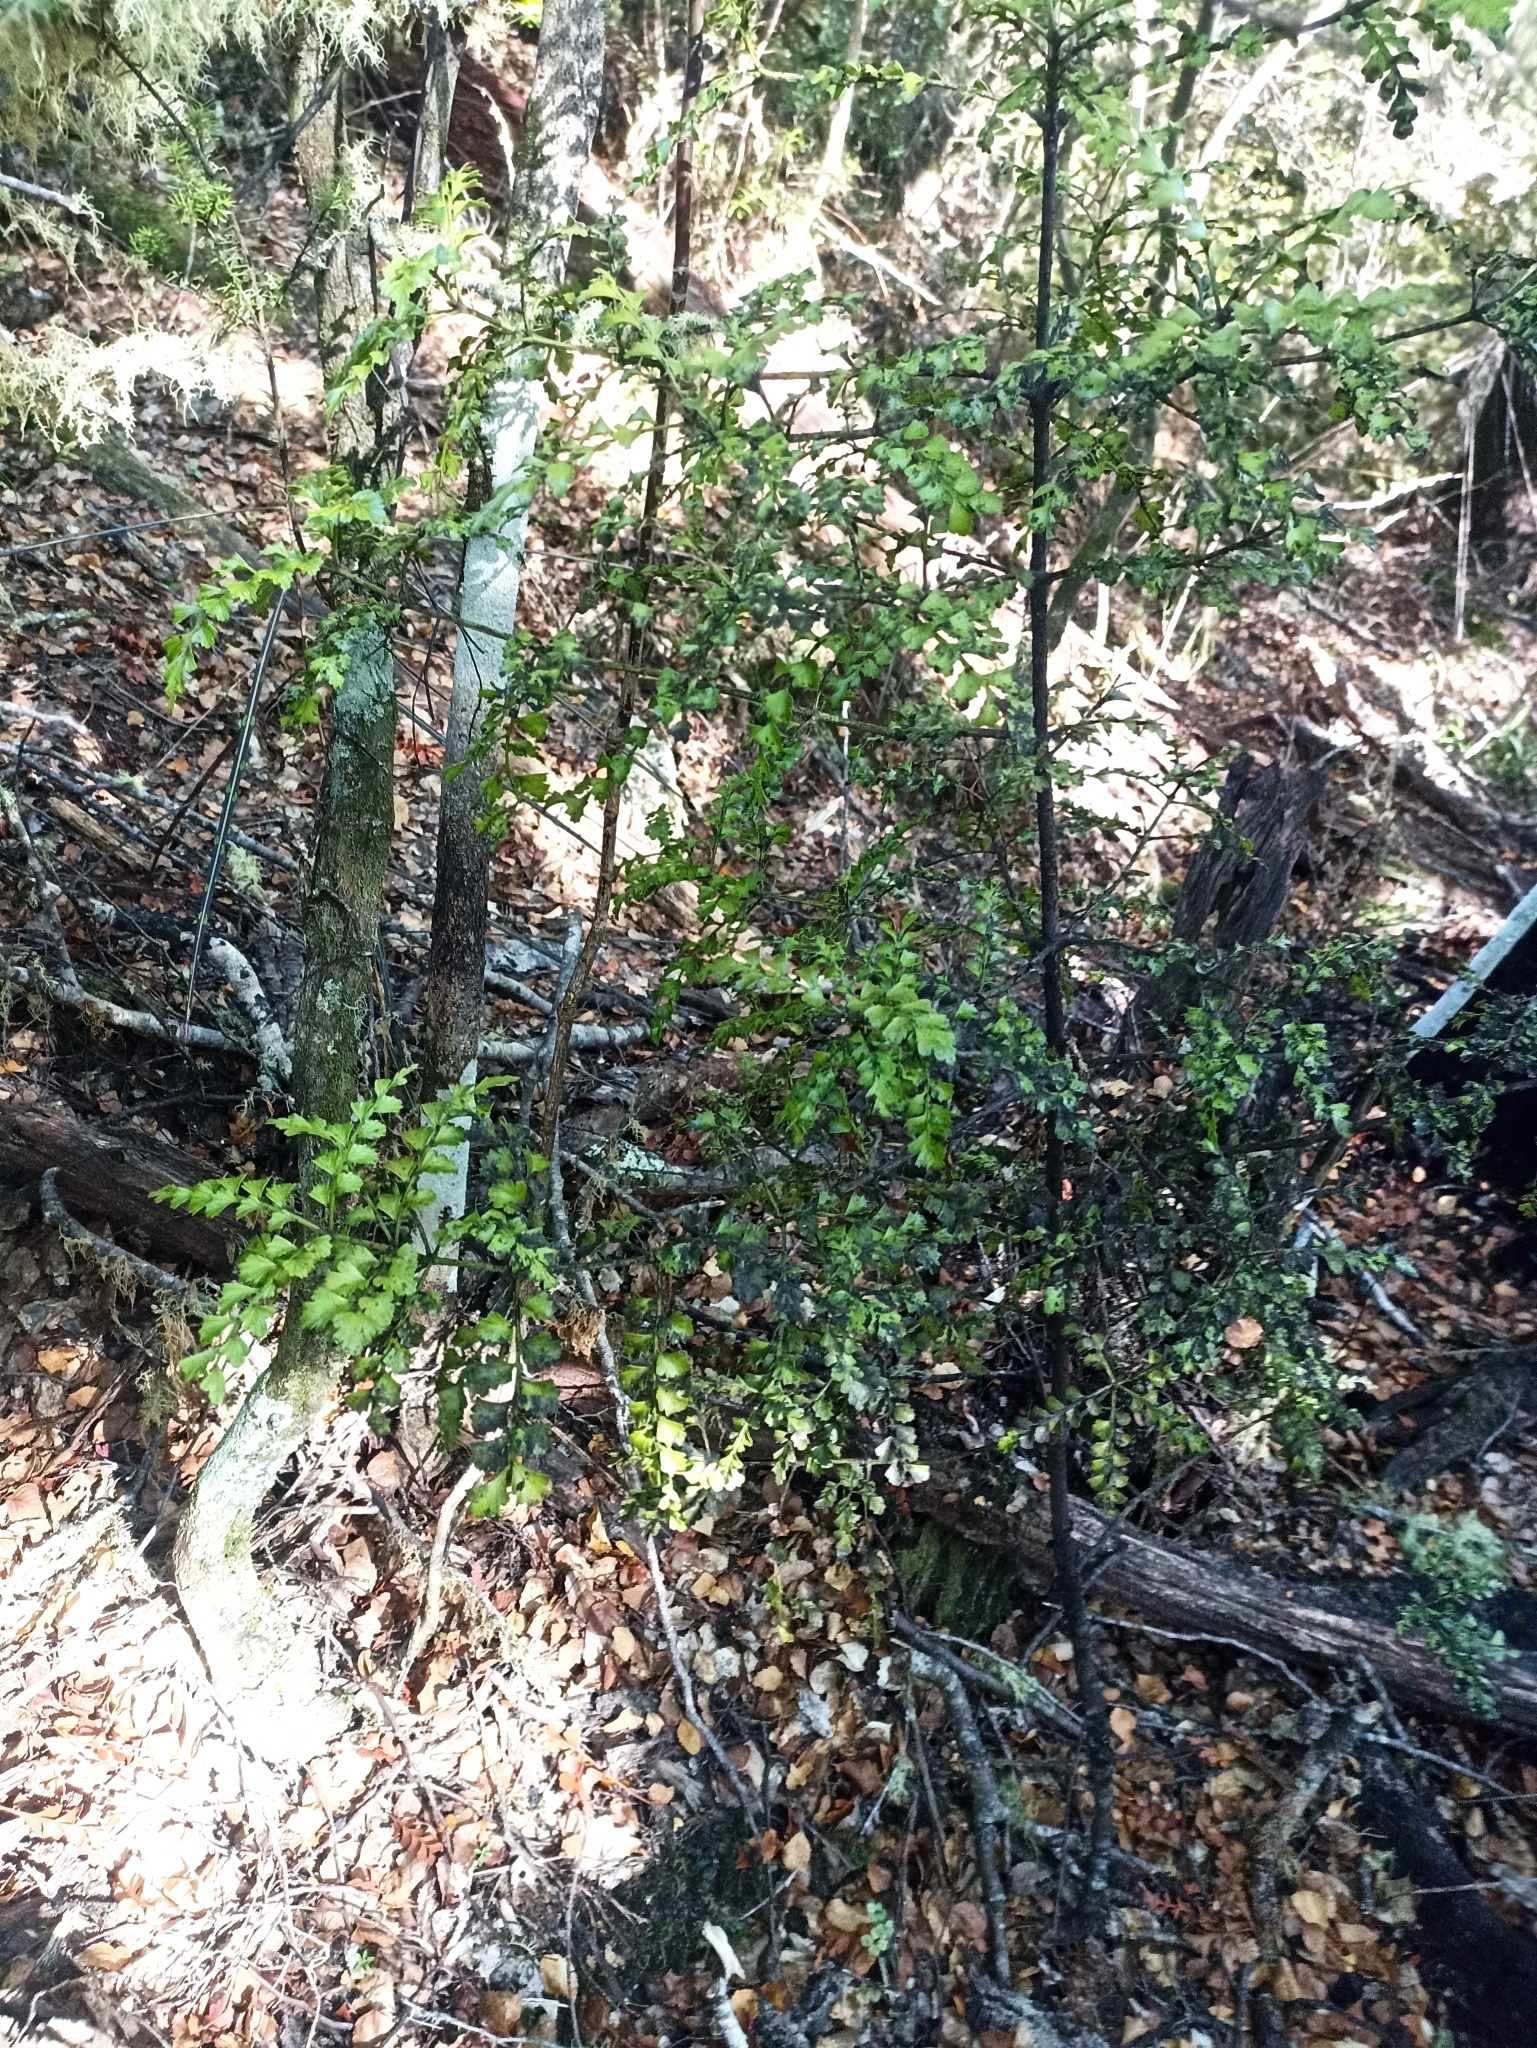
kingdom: Plantae
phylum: Tracheophyta
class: Pinopsida
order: Pinales
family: Phyllocladaceae
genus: Phyllocladus
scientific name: Phyllocladus trichomanoides
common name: Celery pine
